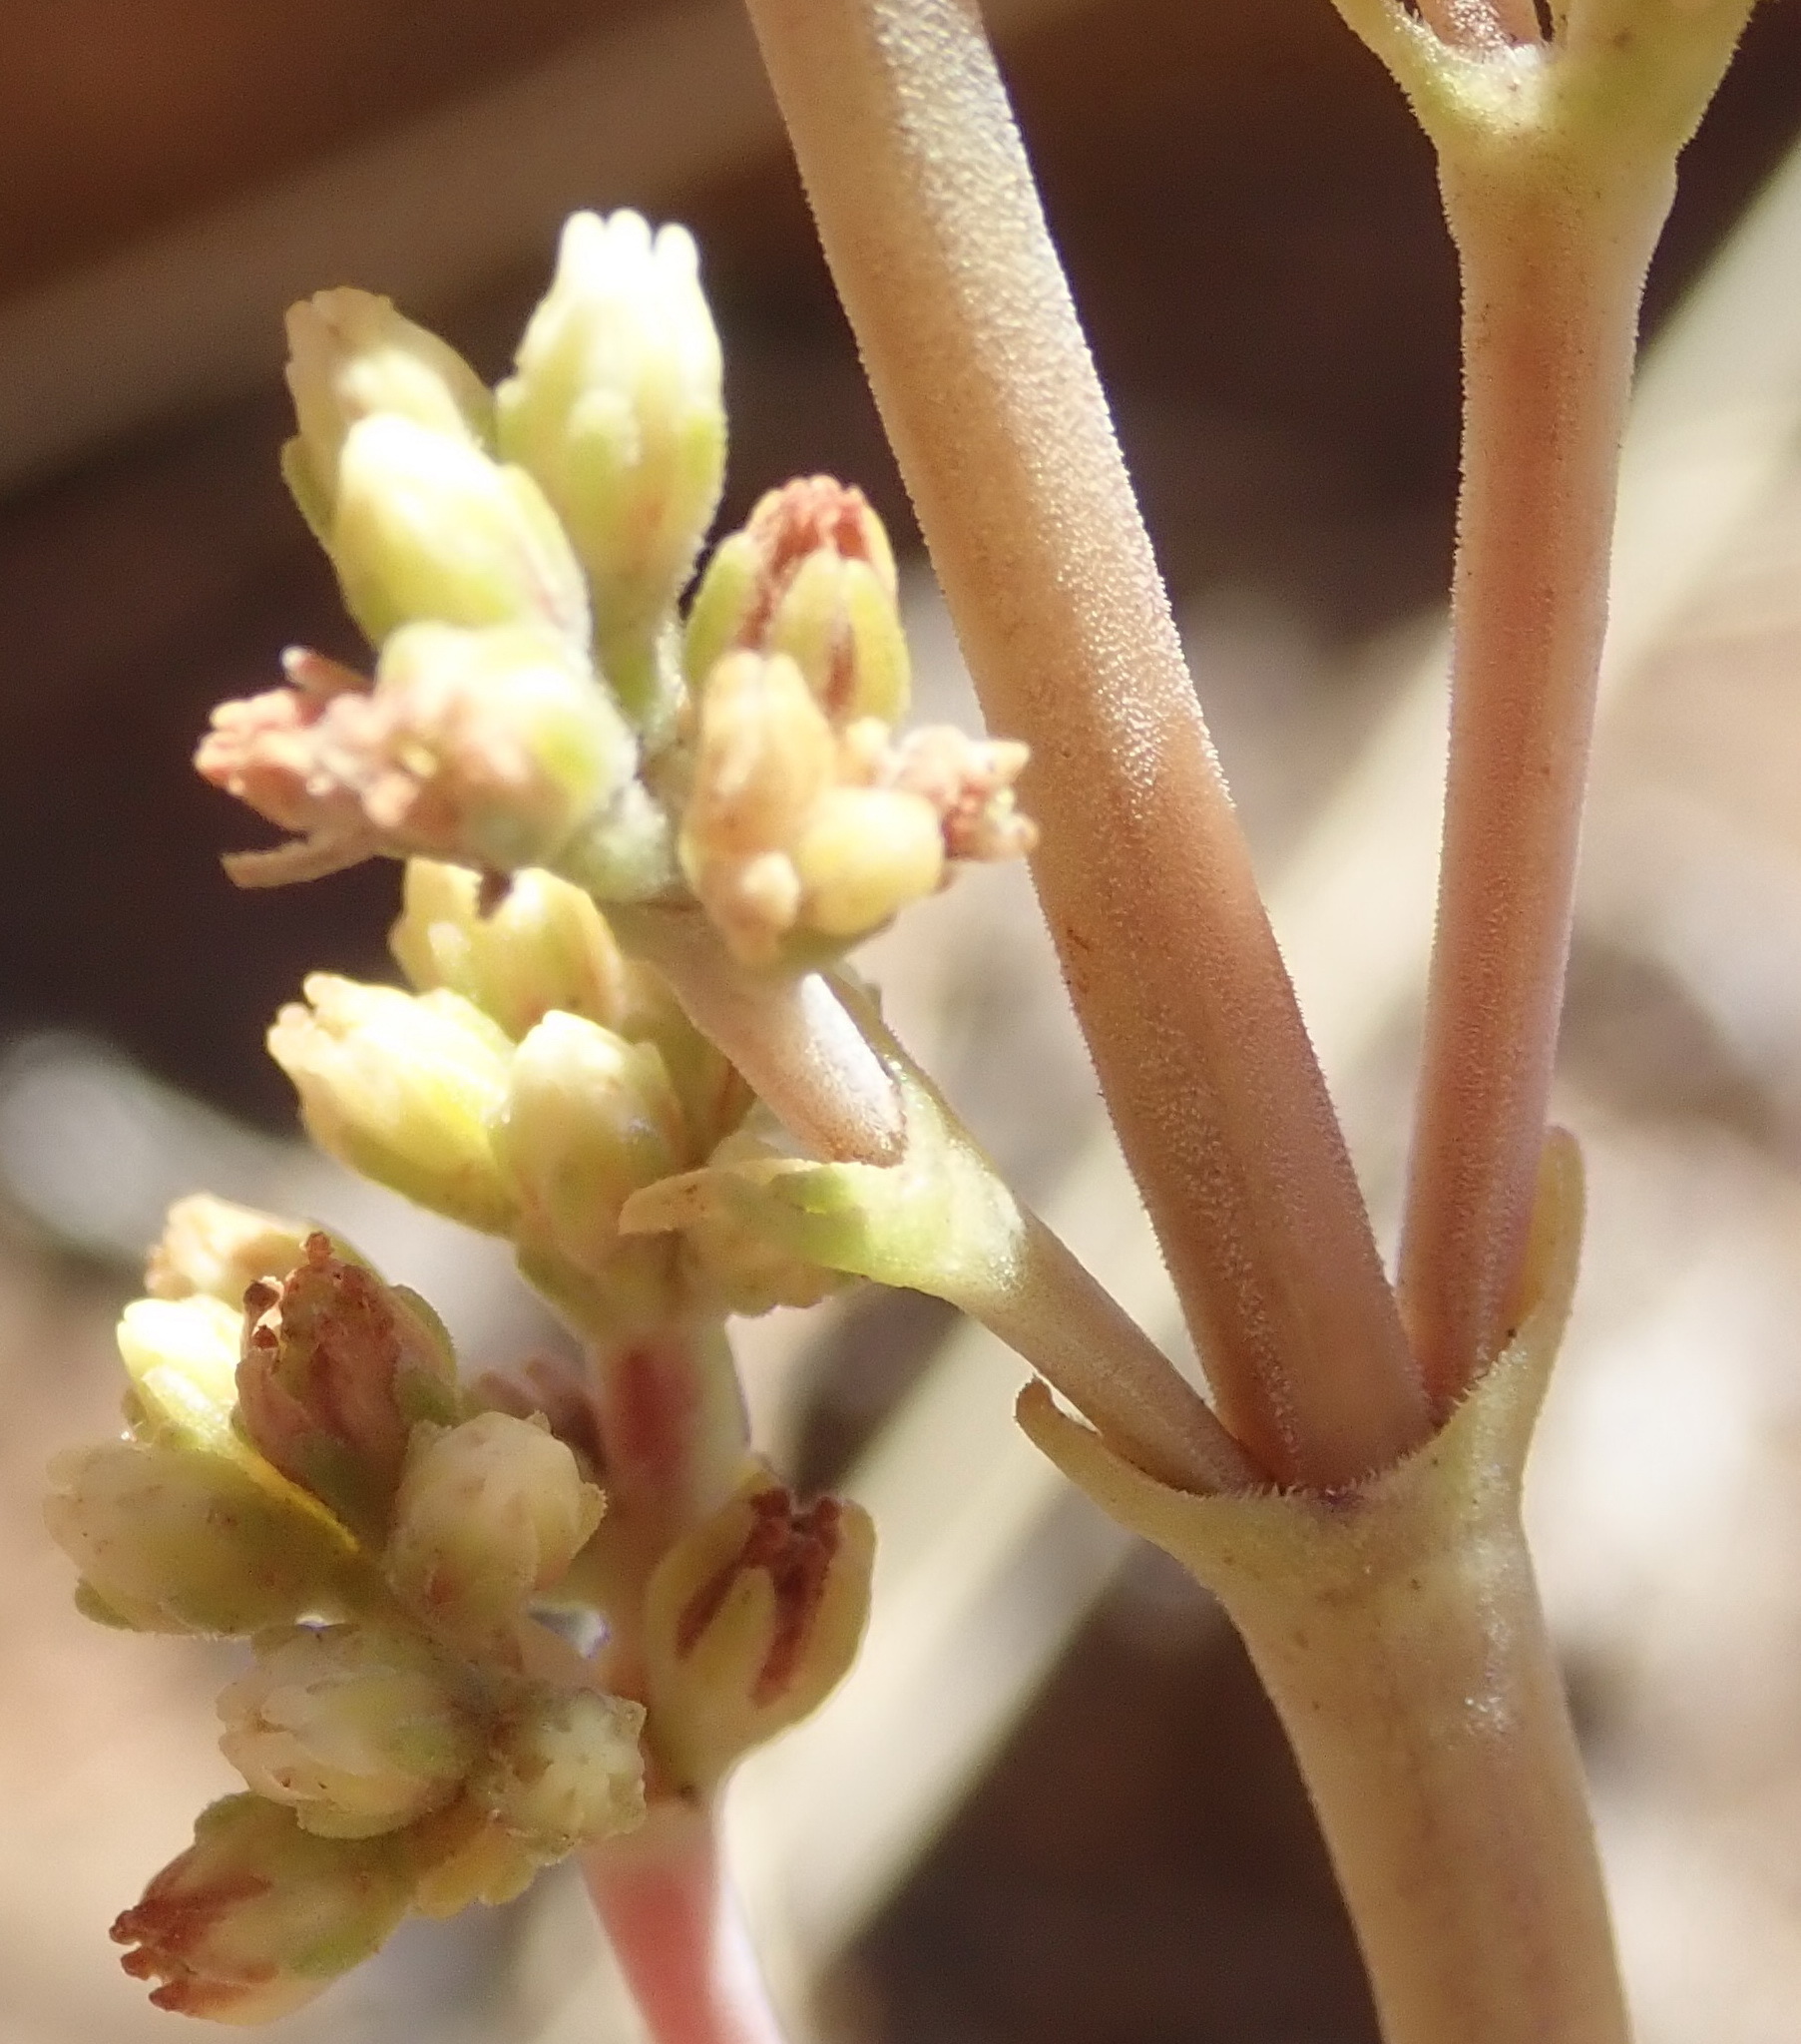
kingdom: Plantae
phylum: Tracheophyta
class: Magnoliopsida
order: Saxifragales
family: Crassulaceae
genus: Crassula
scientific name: Crassula nudicaulis
